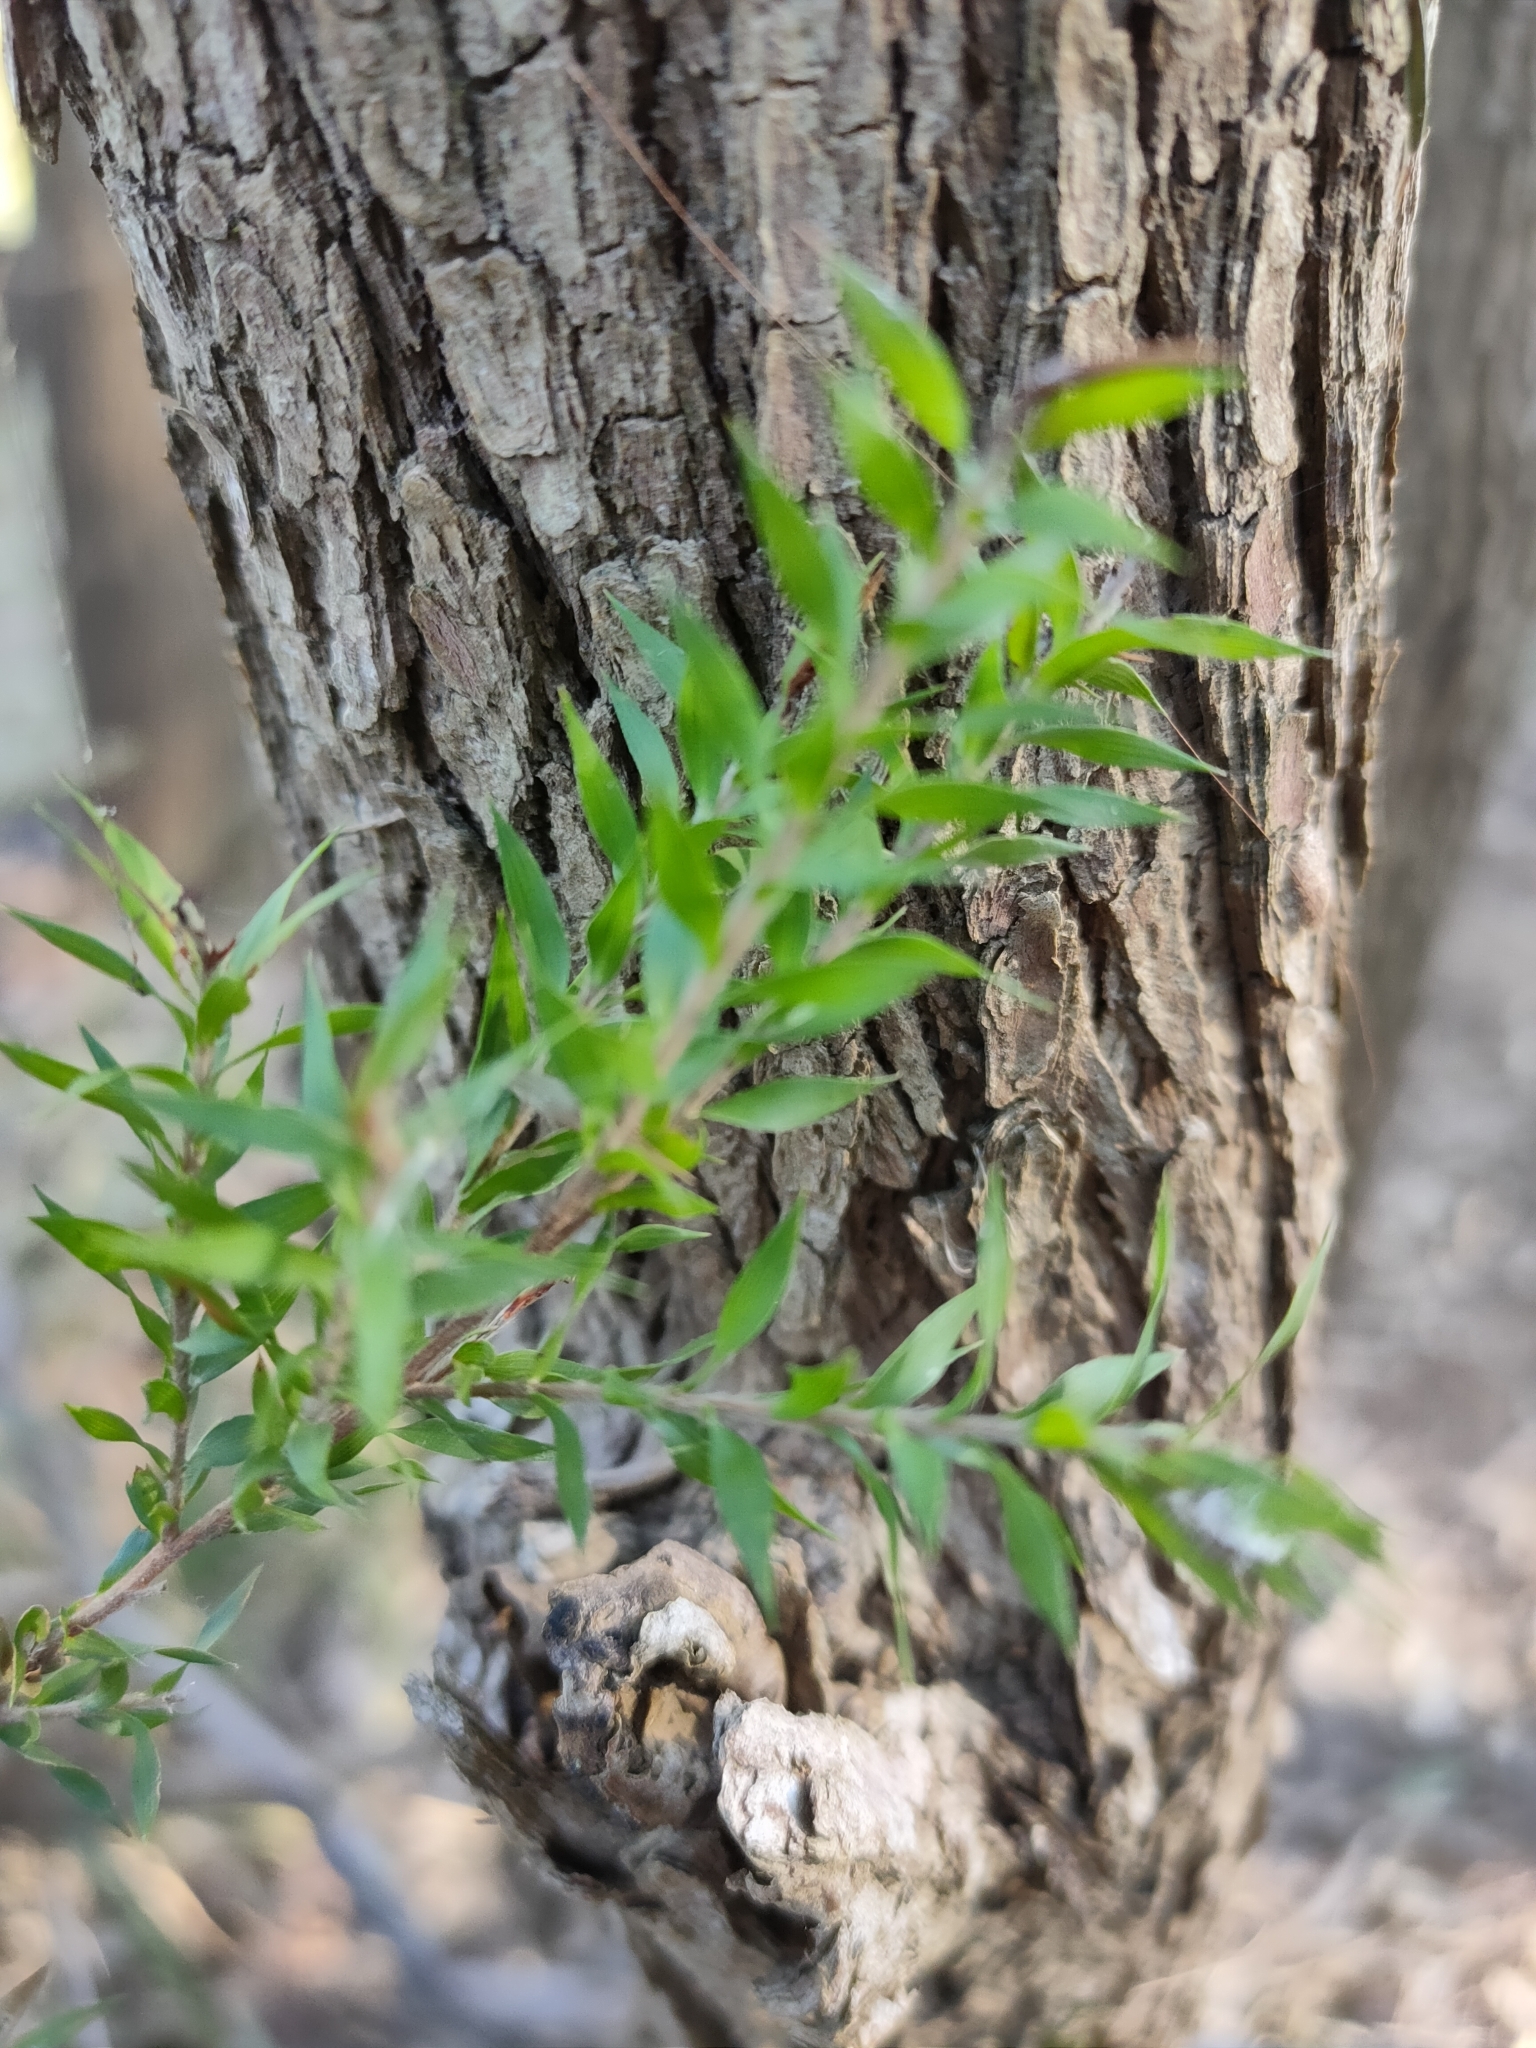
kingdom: Plantae
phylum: Tracheophyta
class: Magnoliopsida
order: Myrtales
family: Myrtaceae
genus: Melaleuca
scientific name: Melaleuca bracteata
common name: Black tea-tree
